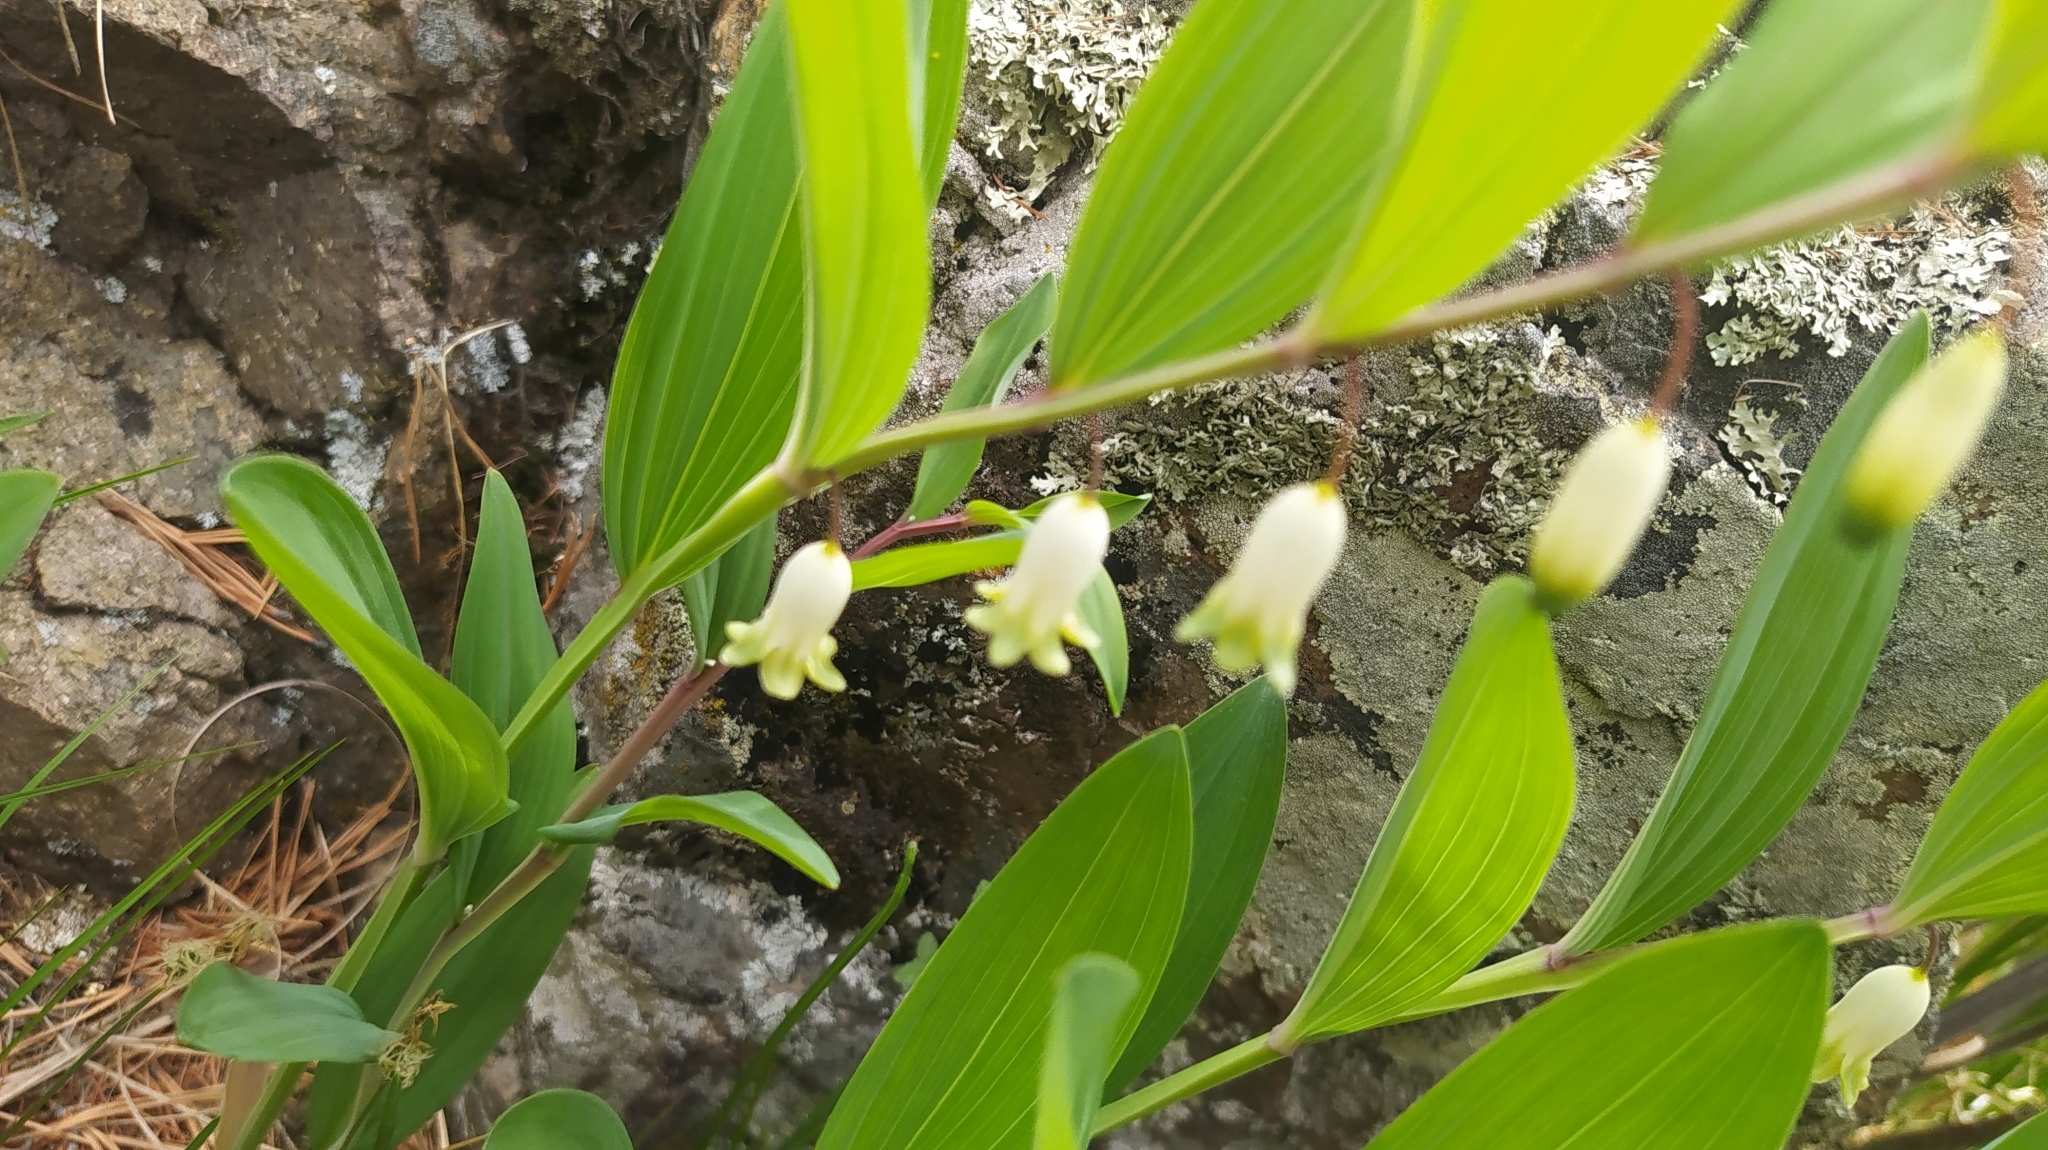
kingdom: Plantae
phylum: Tracheophyta
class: Liliopsida
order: Asparagales
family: Asparagaceae
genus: Polygonatum
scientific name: Polygonatum odoratum
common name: Angular solomon's-seal
